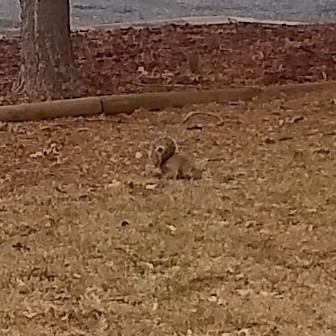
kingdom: Animalia
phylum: Chordata
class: Mammalia
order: Rodentia
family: Sciuridae
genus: Sciurus
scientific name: Sciurus carolinensis
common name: Eastern gray squirrel
